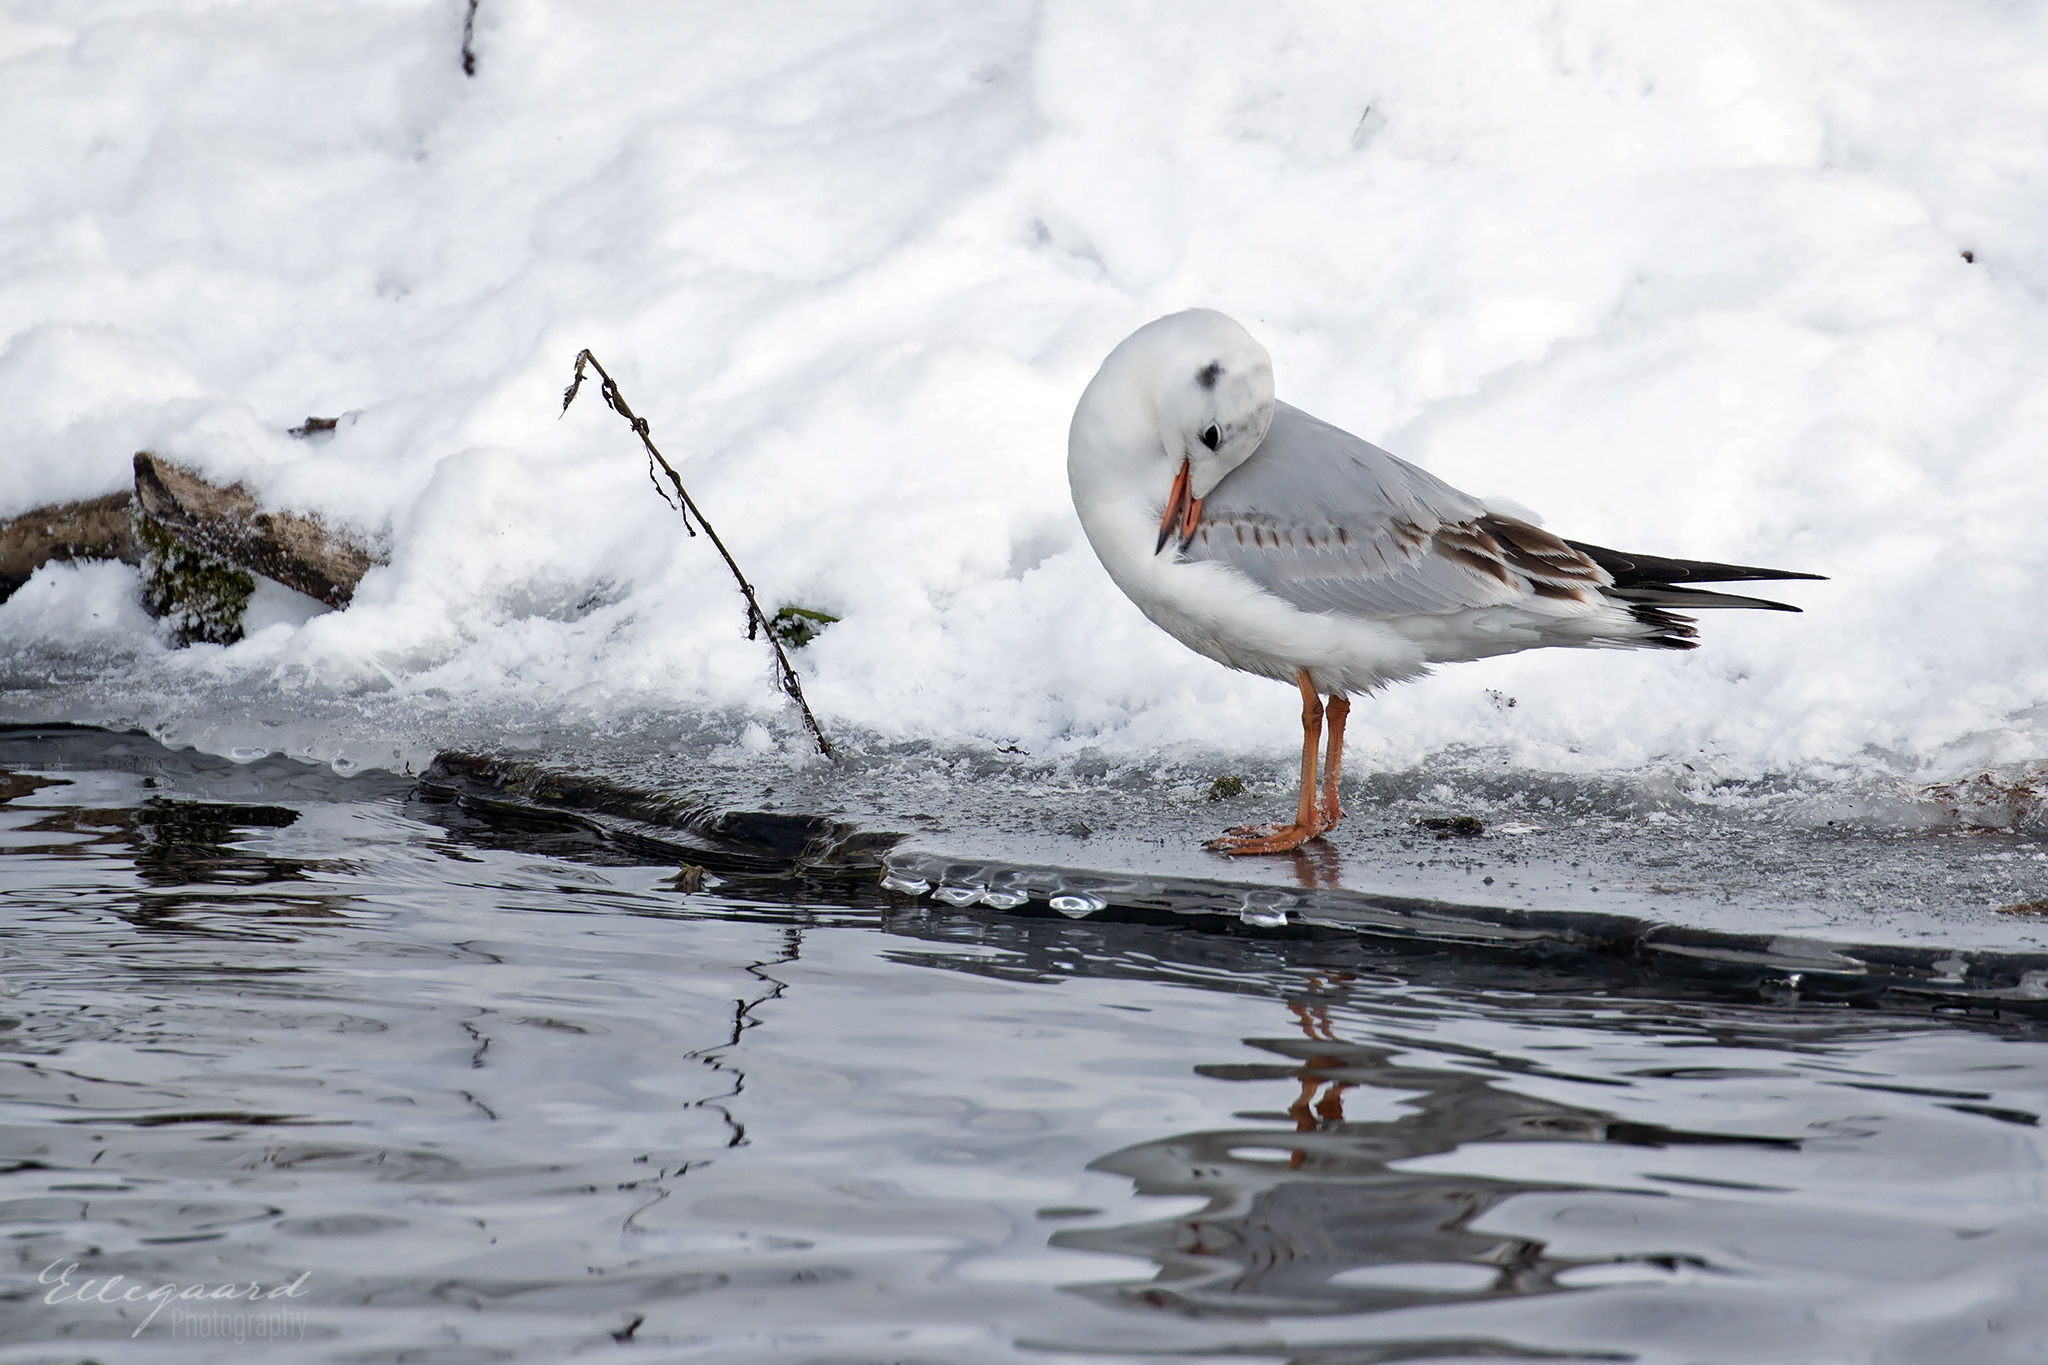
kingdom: Animalia
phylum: Chordata
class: Aves
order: Charadriiformes
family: Laridae
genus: Chroicocephalus
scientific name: Chroicocephalus ridibundus
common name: Black-headed gull
